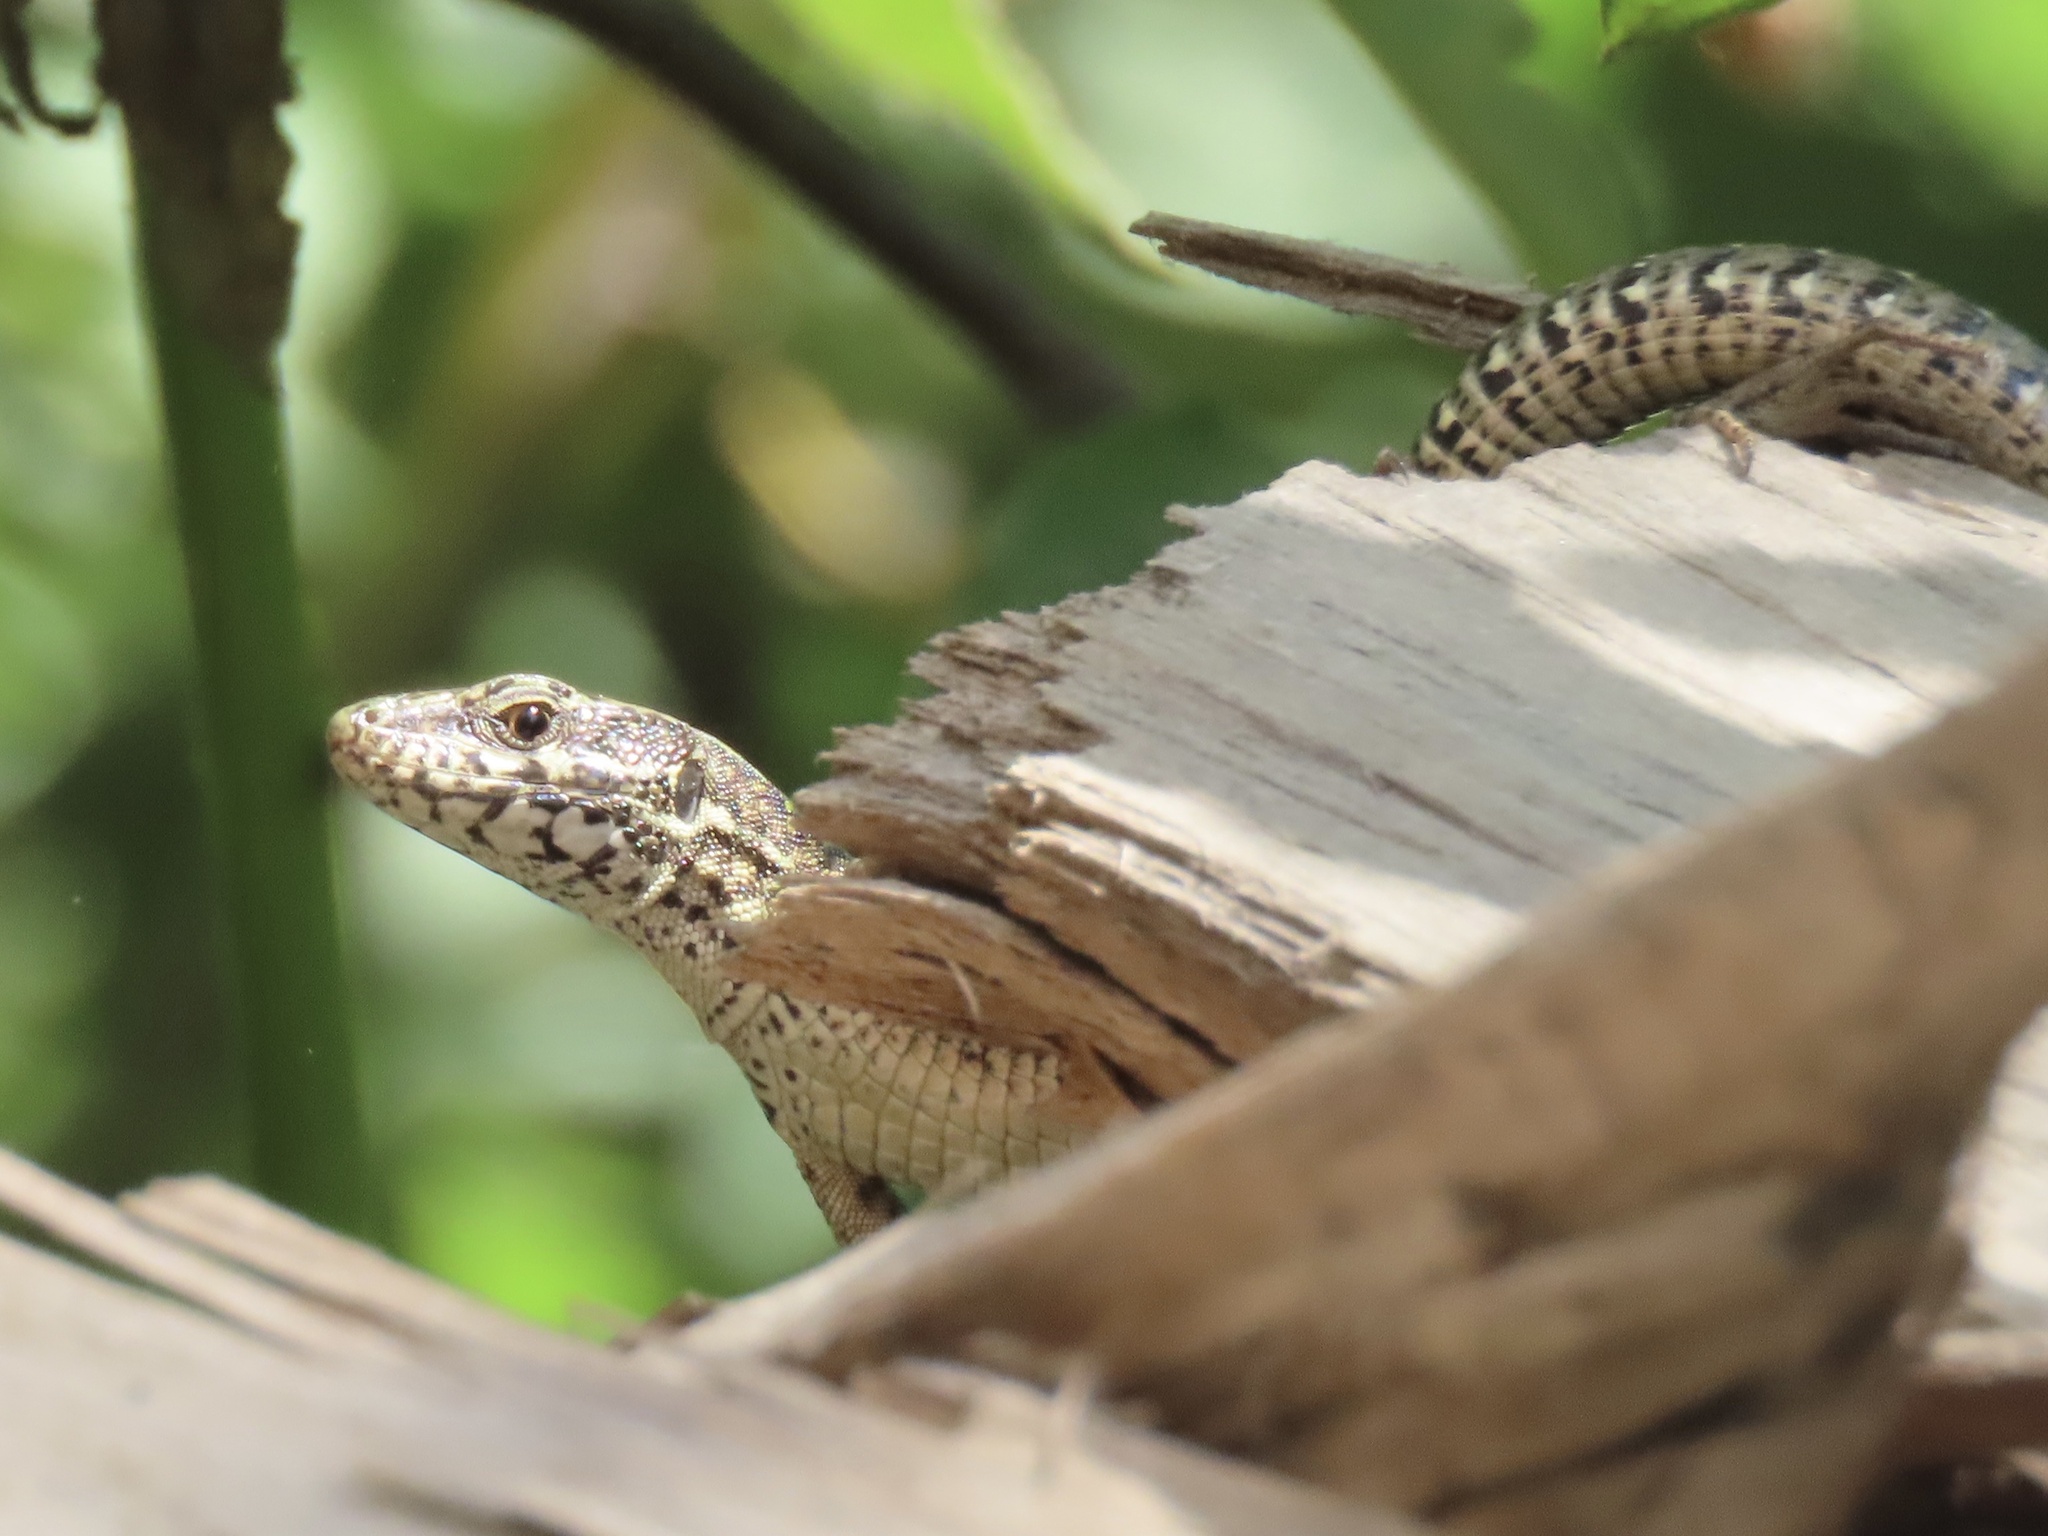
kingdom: Animalia
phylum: Chordata
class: Squamata
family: Lacertidae
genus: Podarcis
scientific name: Podarcis muralis
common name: Common wall lizard
